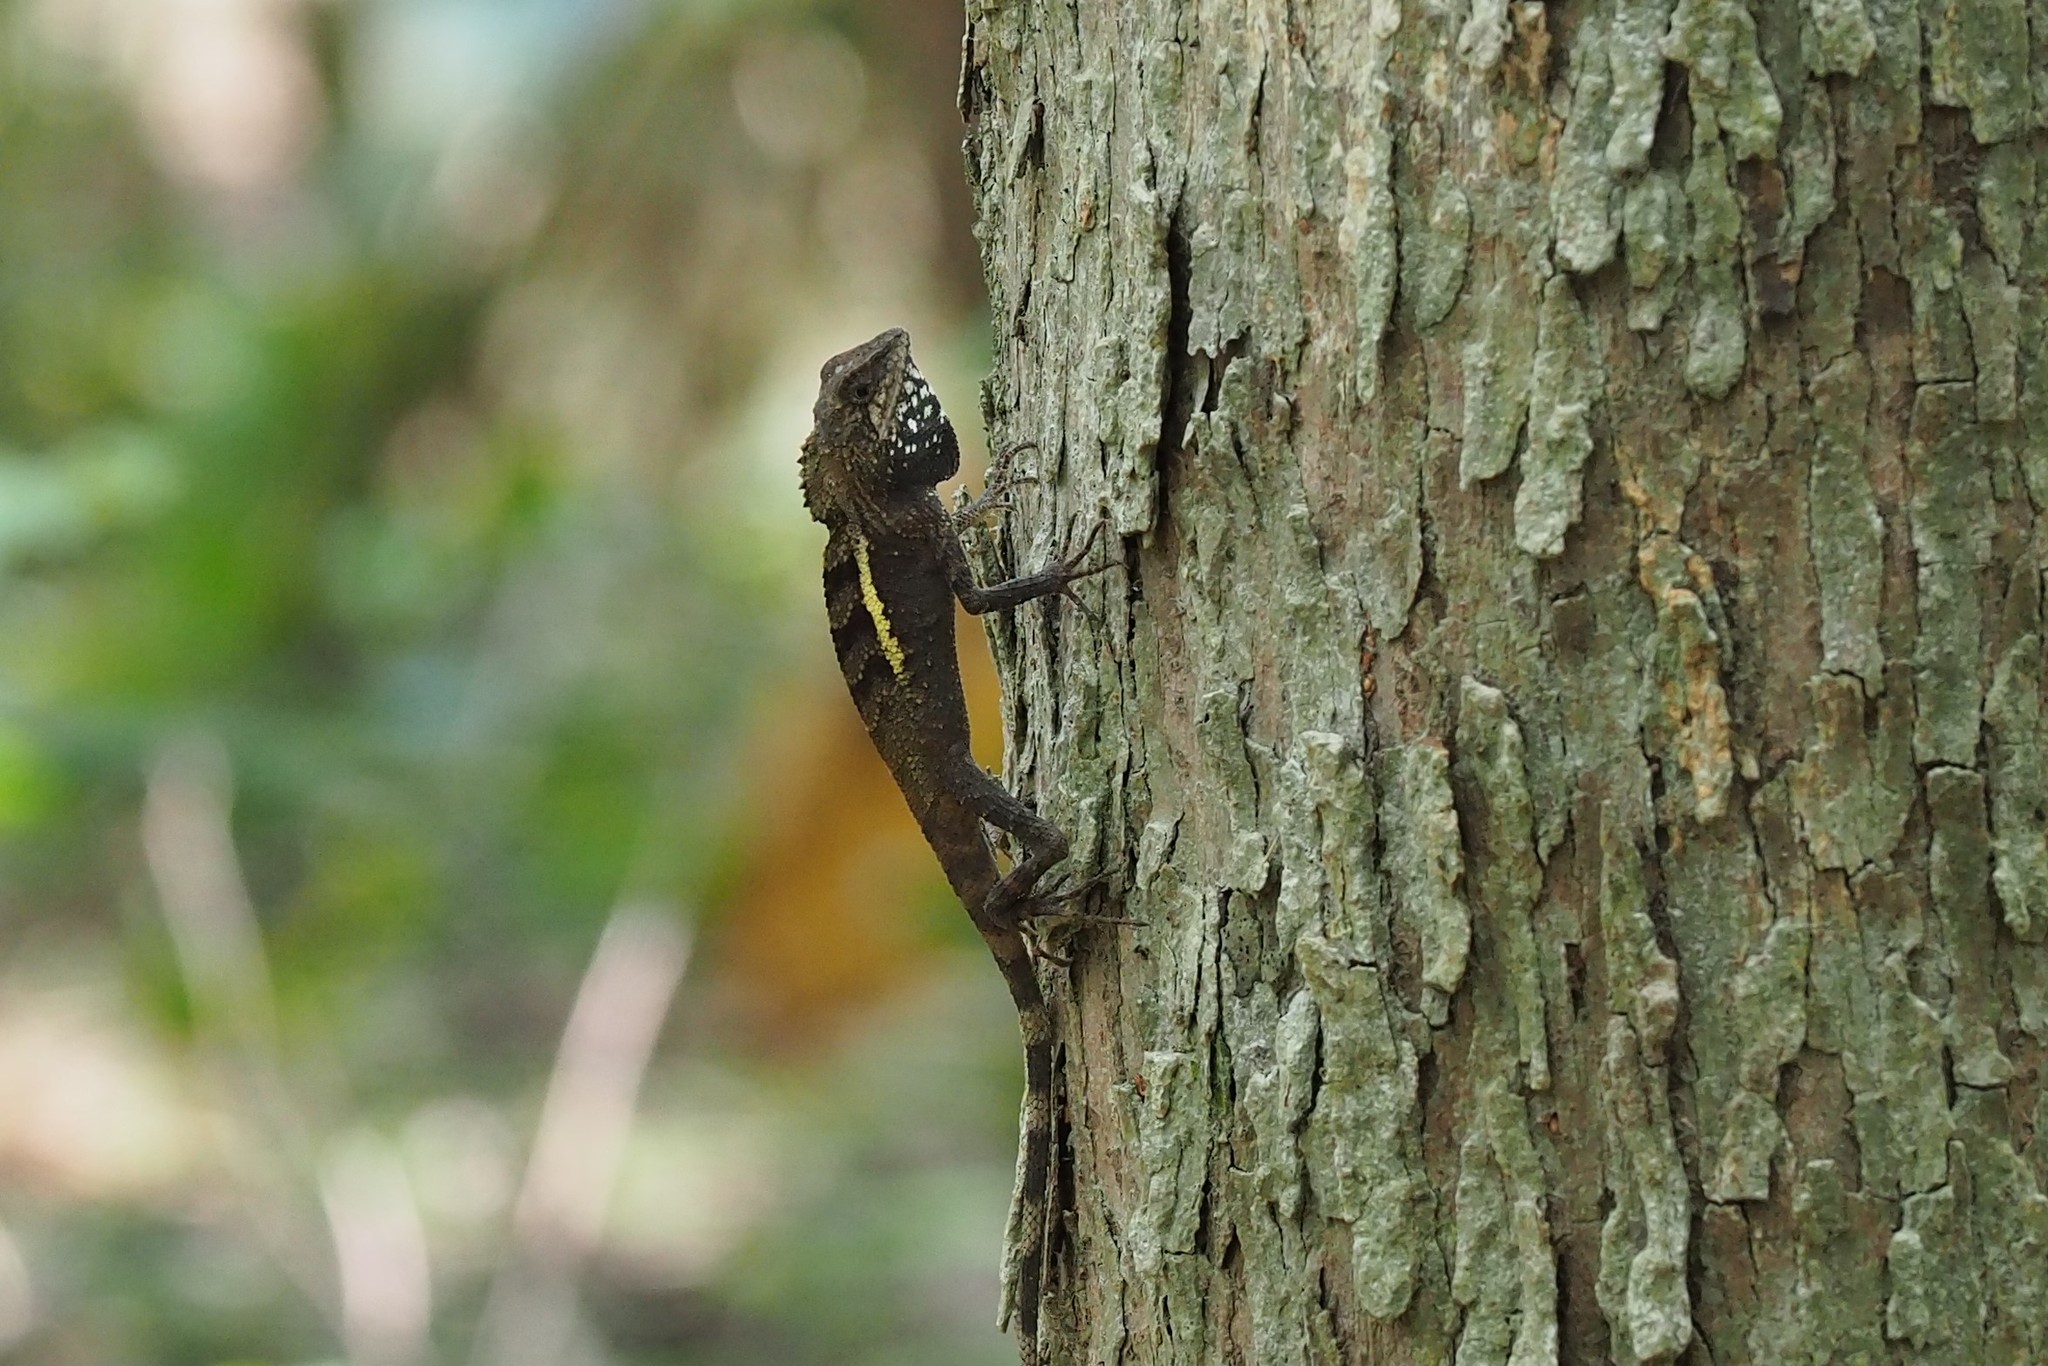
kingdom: Animalia
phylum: Chordata
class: Squamata
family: Agamidae
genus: Diploderma
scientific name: Diploderma swinhonis
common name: Taiwan japalure
